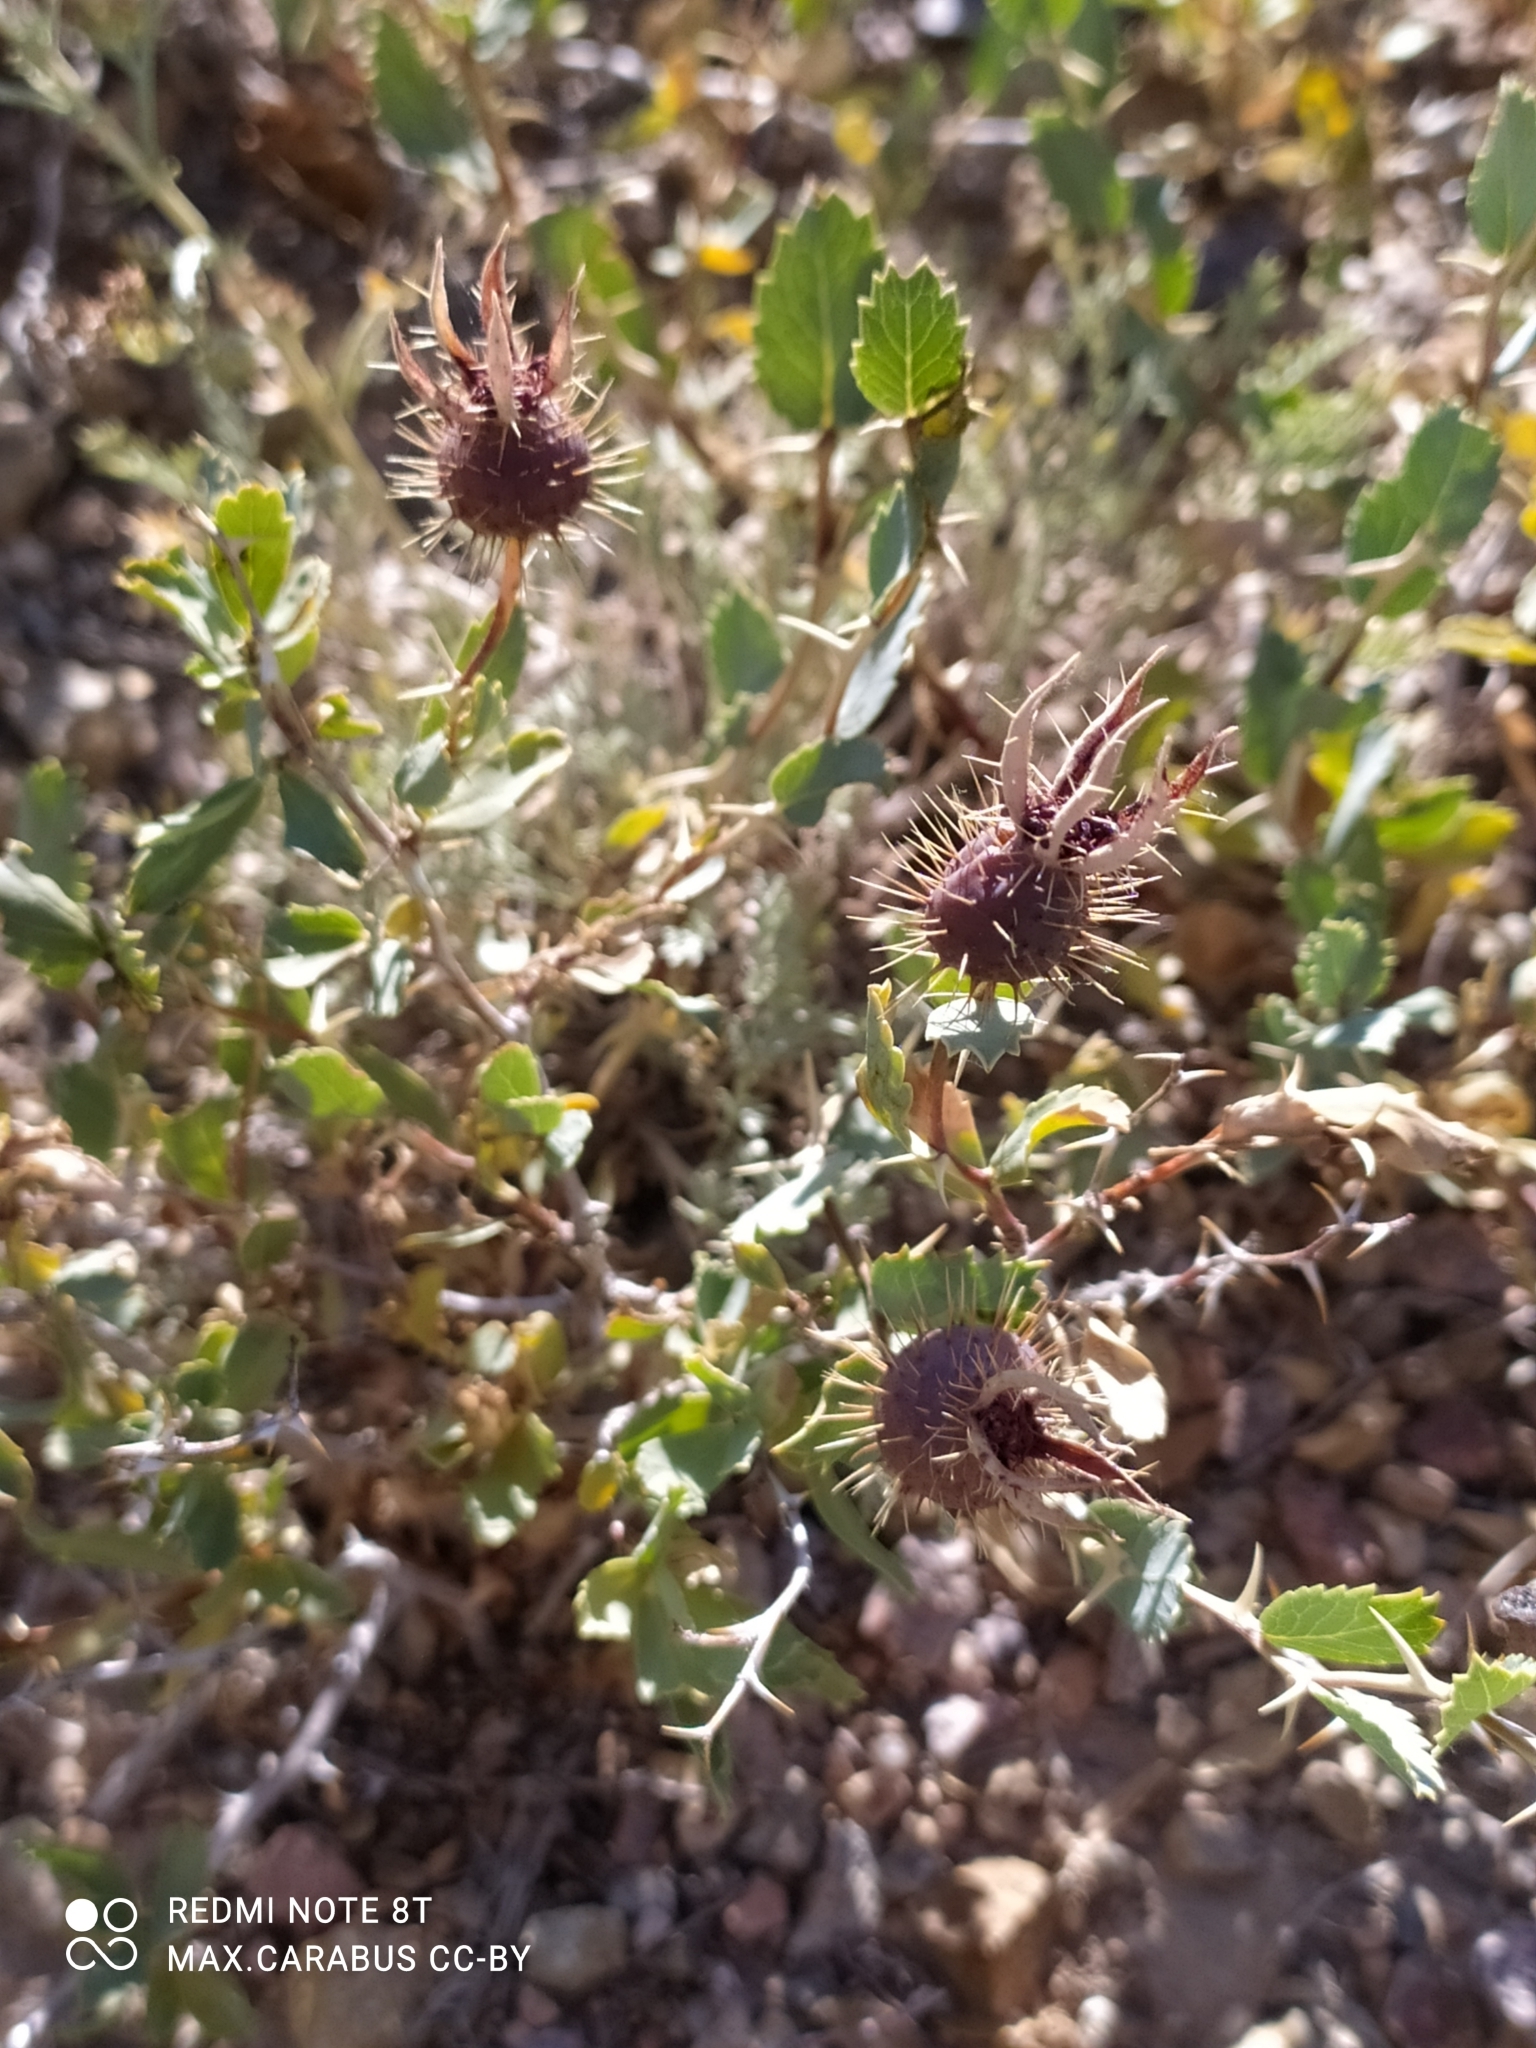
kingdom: Plantae
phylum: Tracheophyta
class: Magnoliopsida
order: Rosales
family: Rosaceae
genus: Rosa
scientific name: Rosa persica
